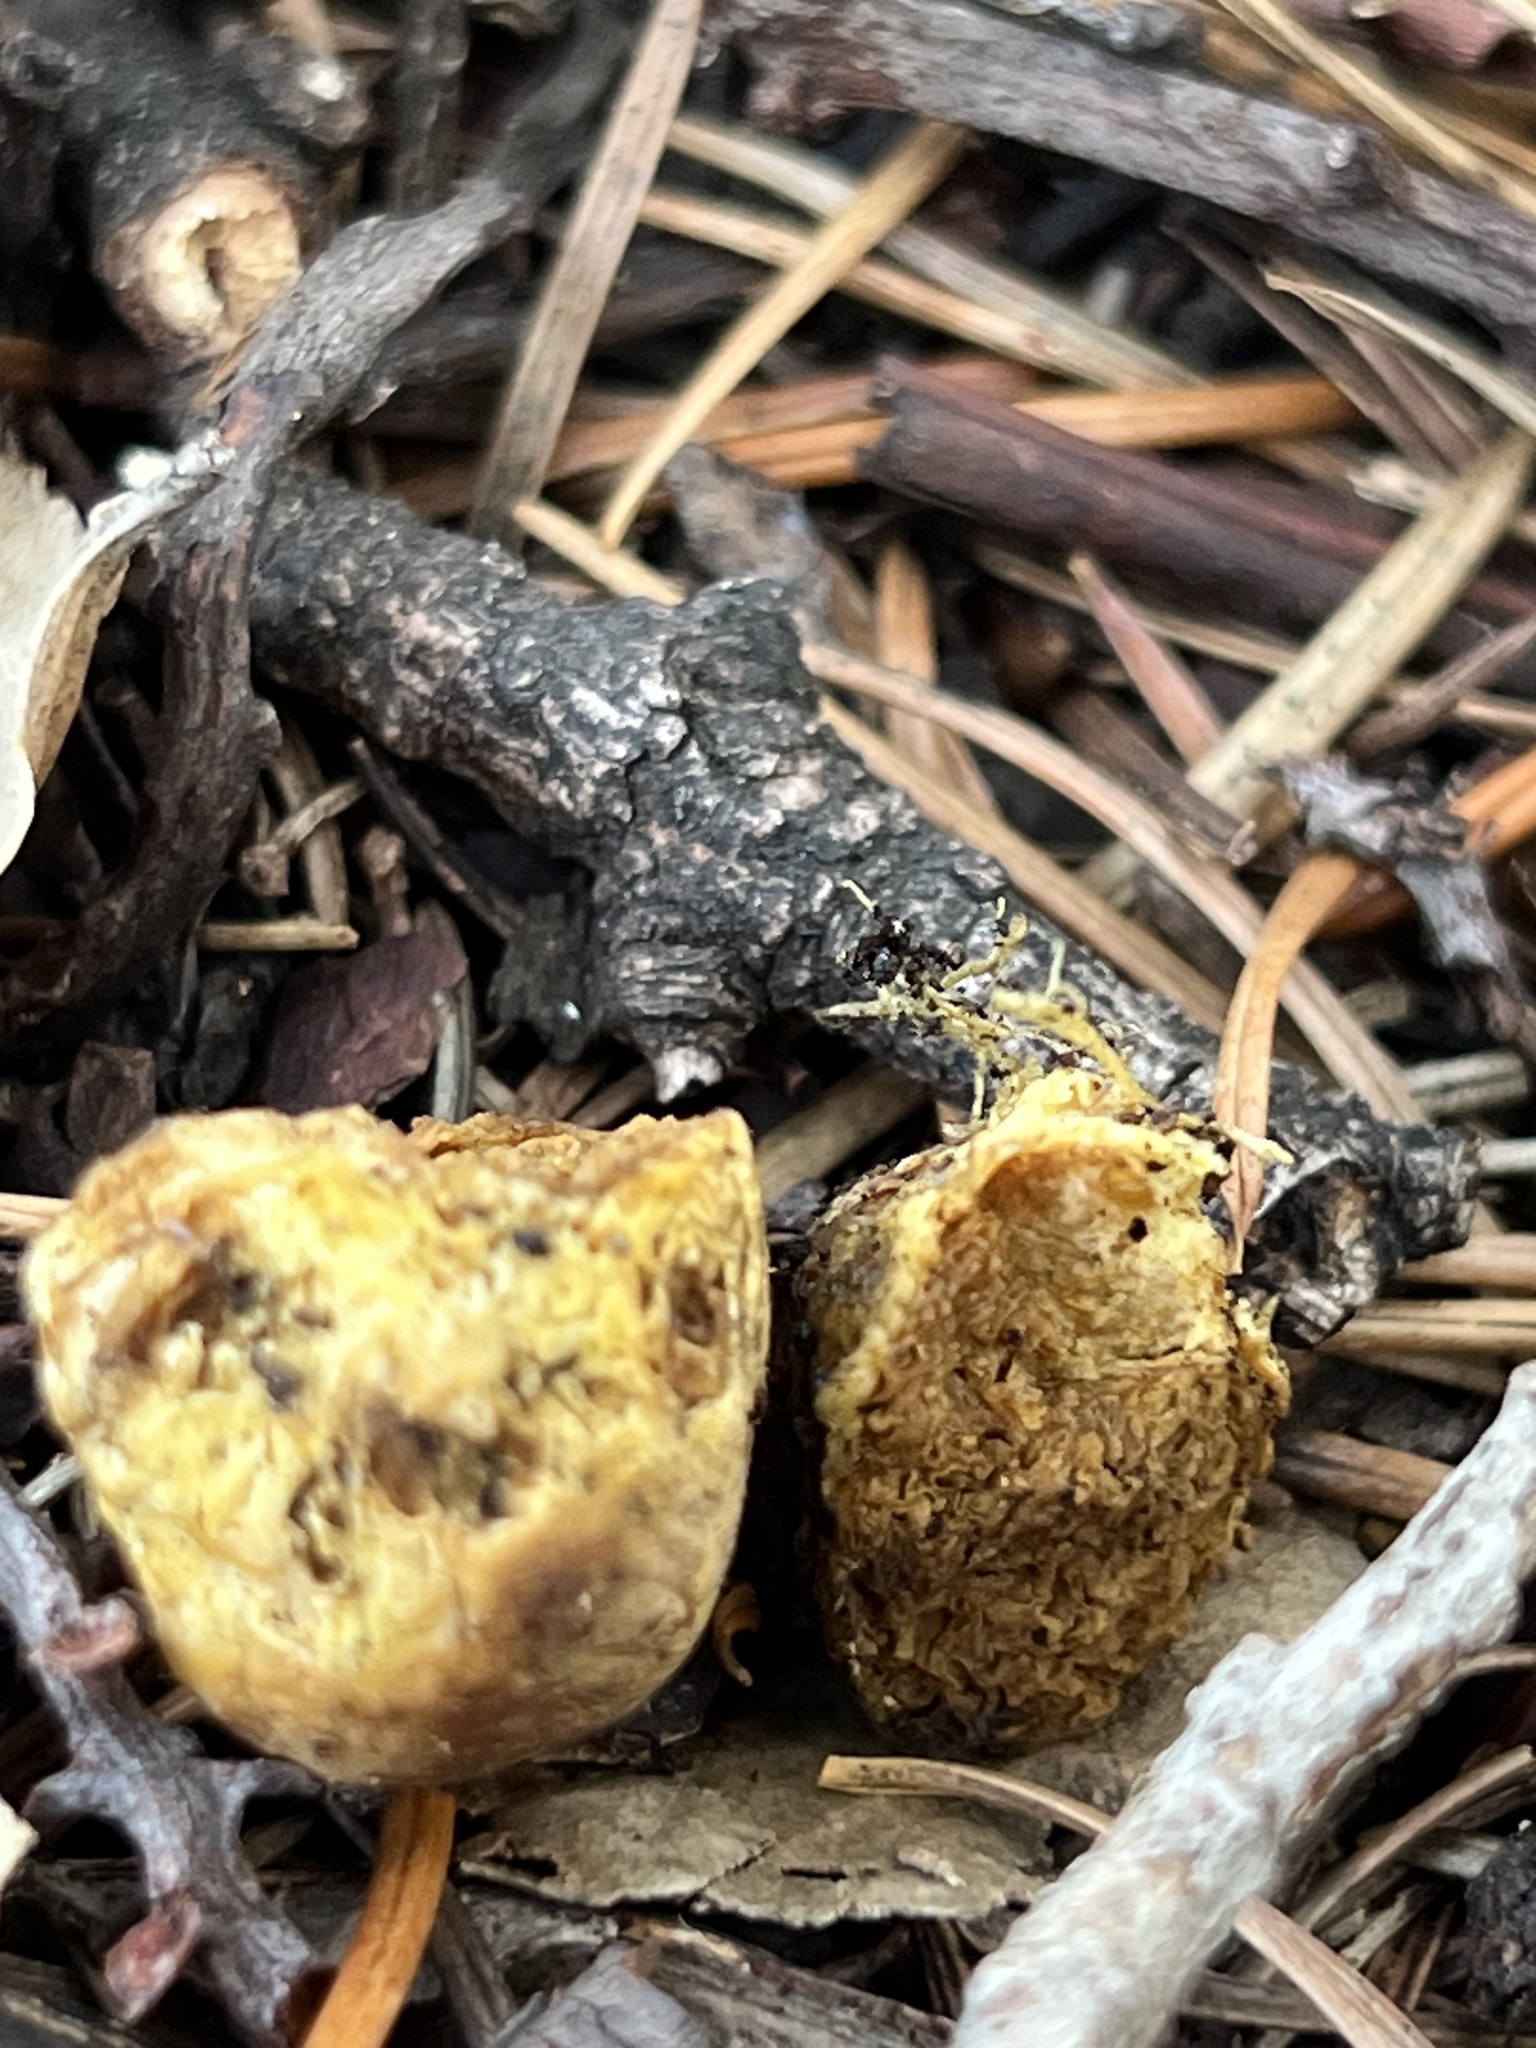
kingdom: Fungi
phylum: Basidiomycota
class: Agaricomycetes
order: Boletales
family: Suillaceae
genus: Truncocolumella
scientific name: Truncocolumella citrina
